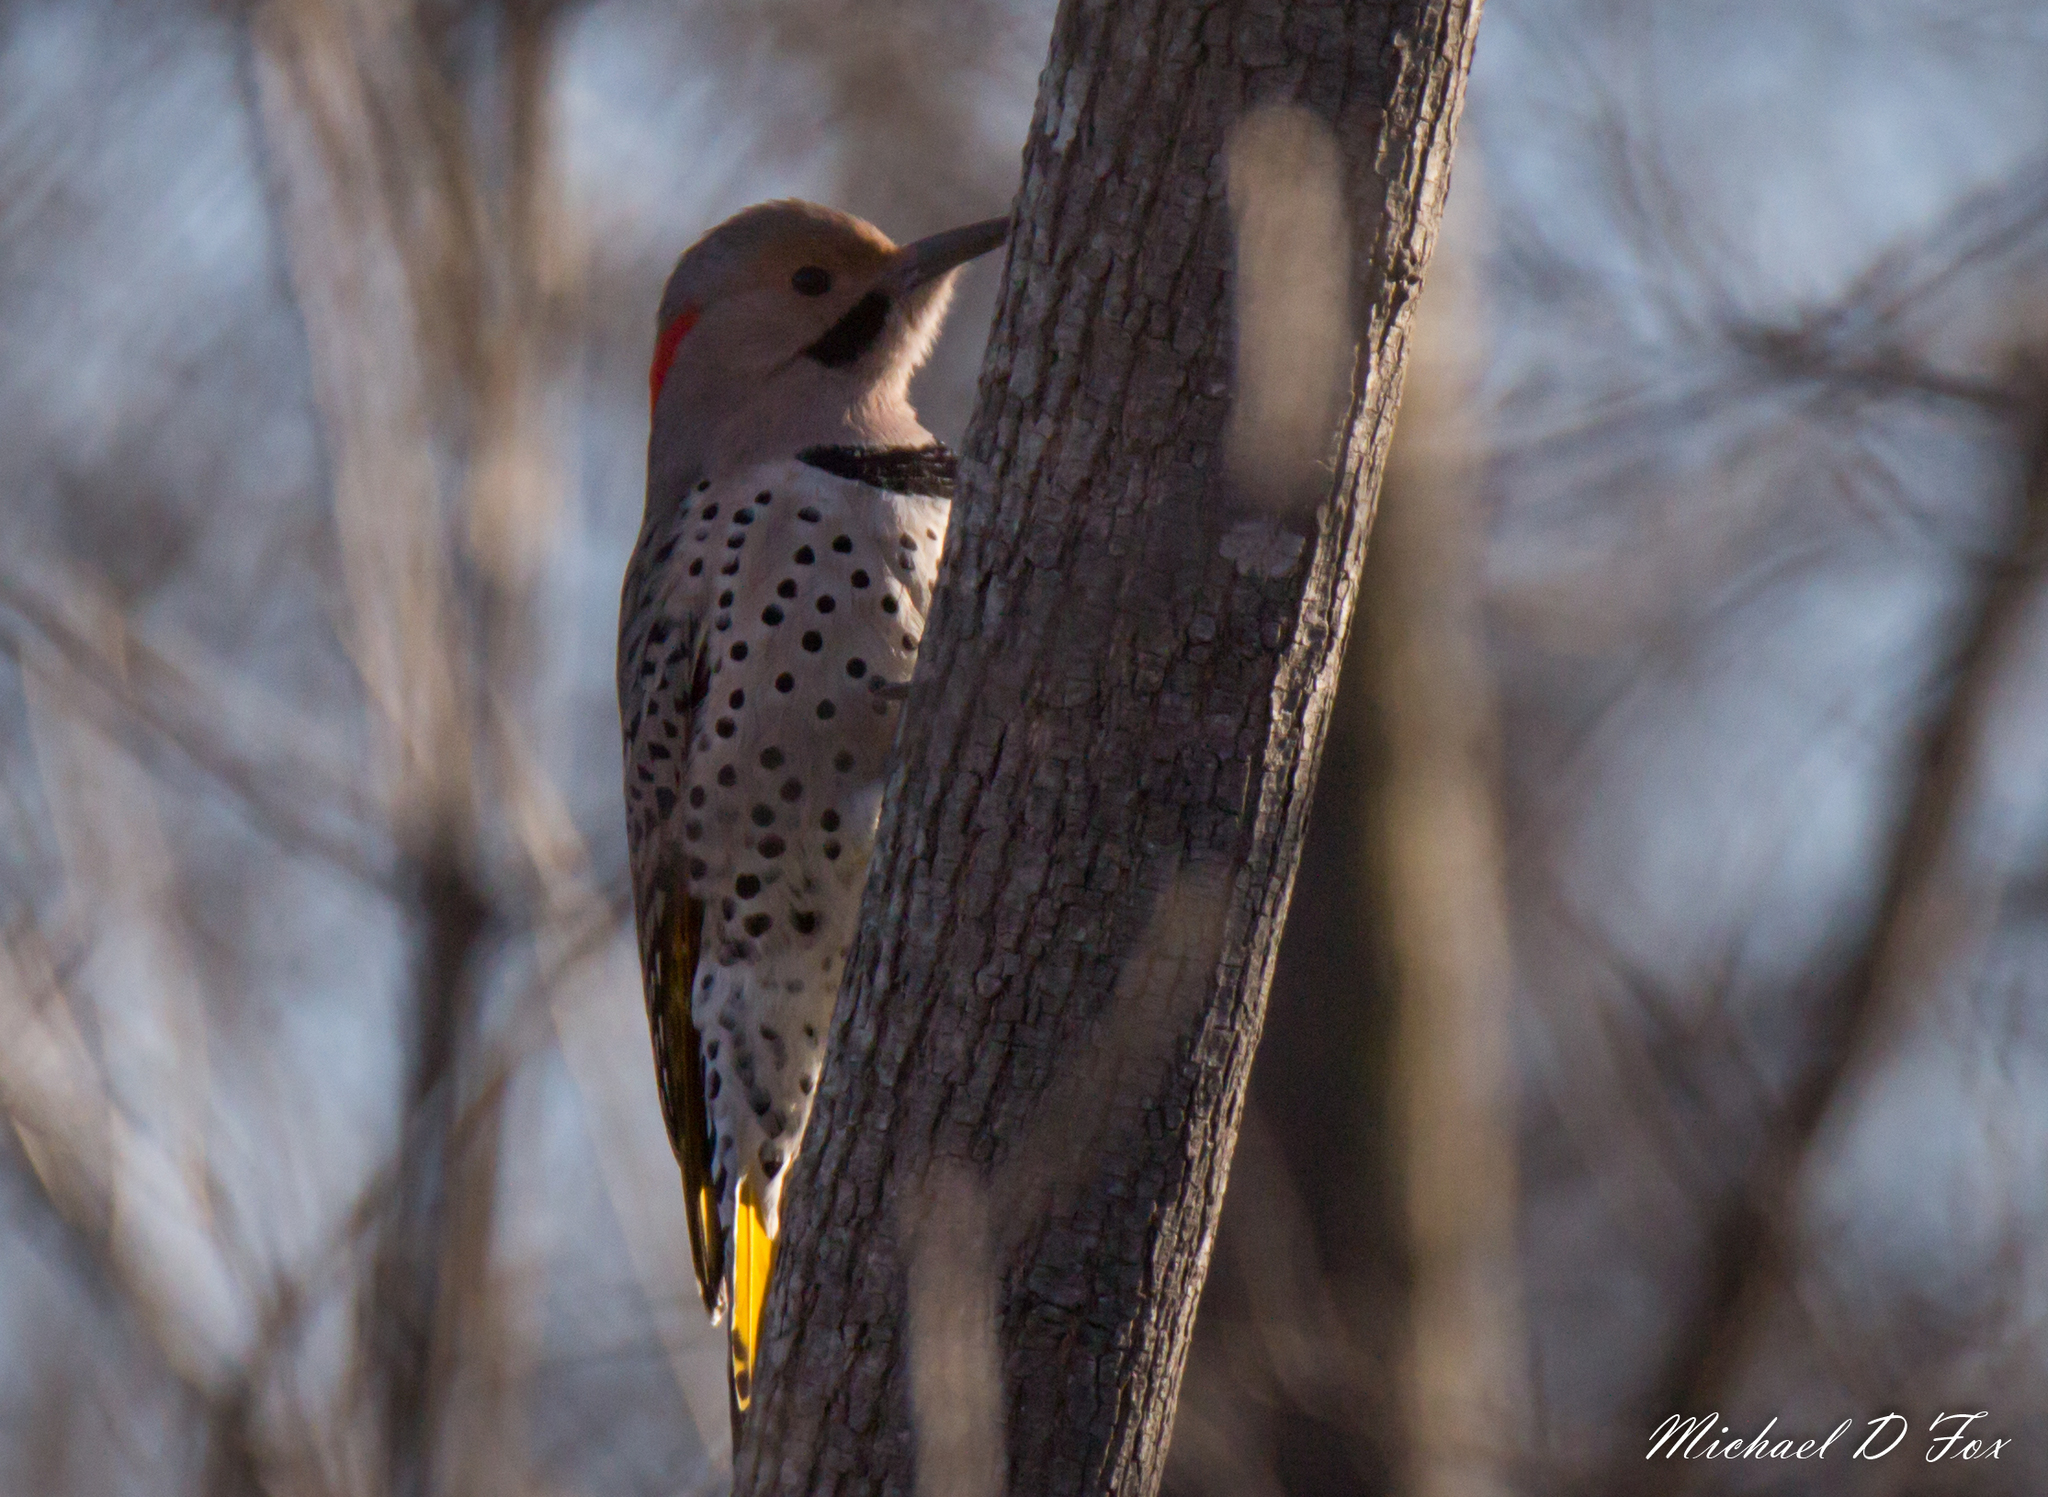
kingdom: Animalia
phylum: Chordata
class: Aves
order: Piciformes
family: Picidae
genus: Colaptes
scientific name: Colaptes auratus
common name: Northern flicker
